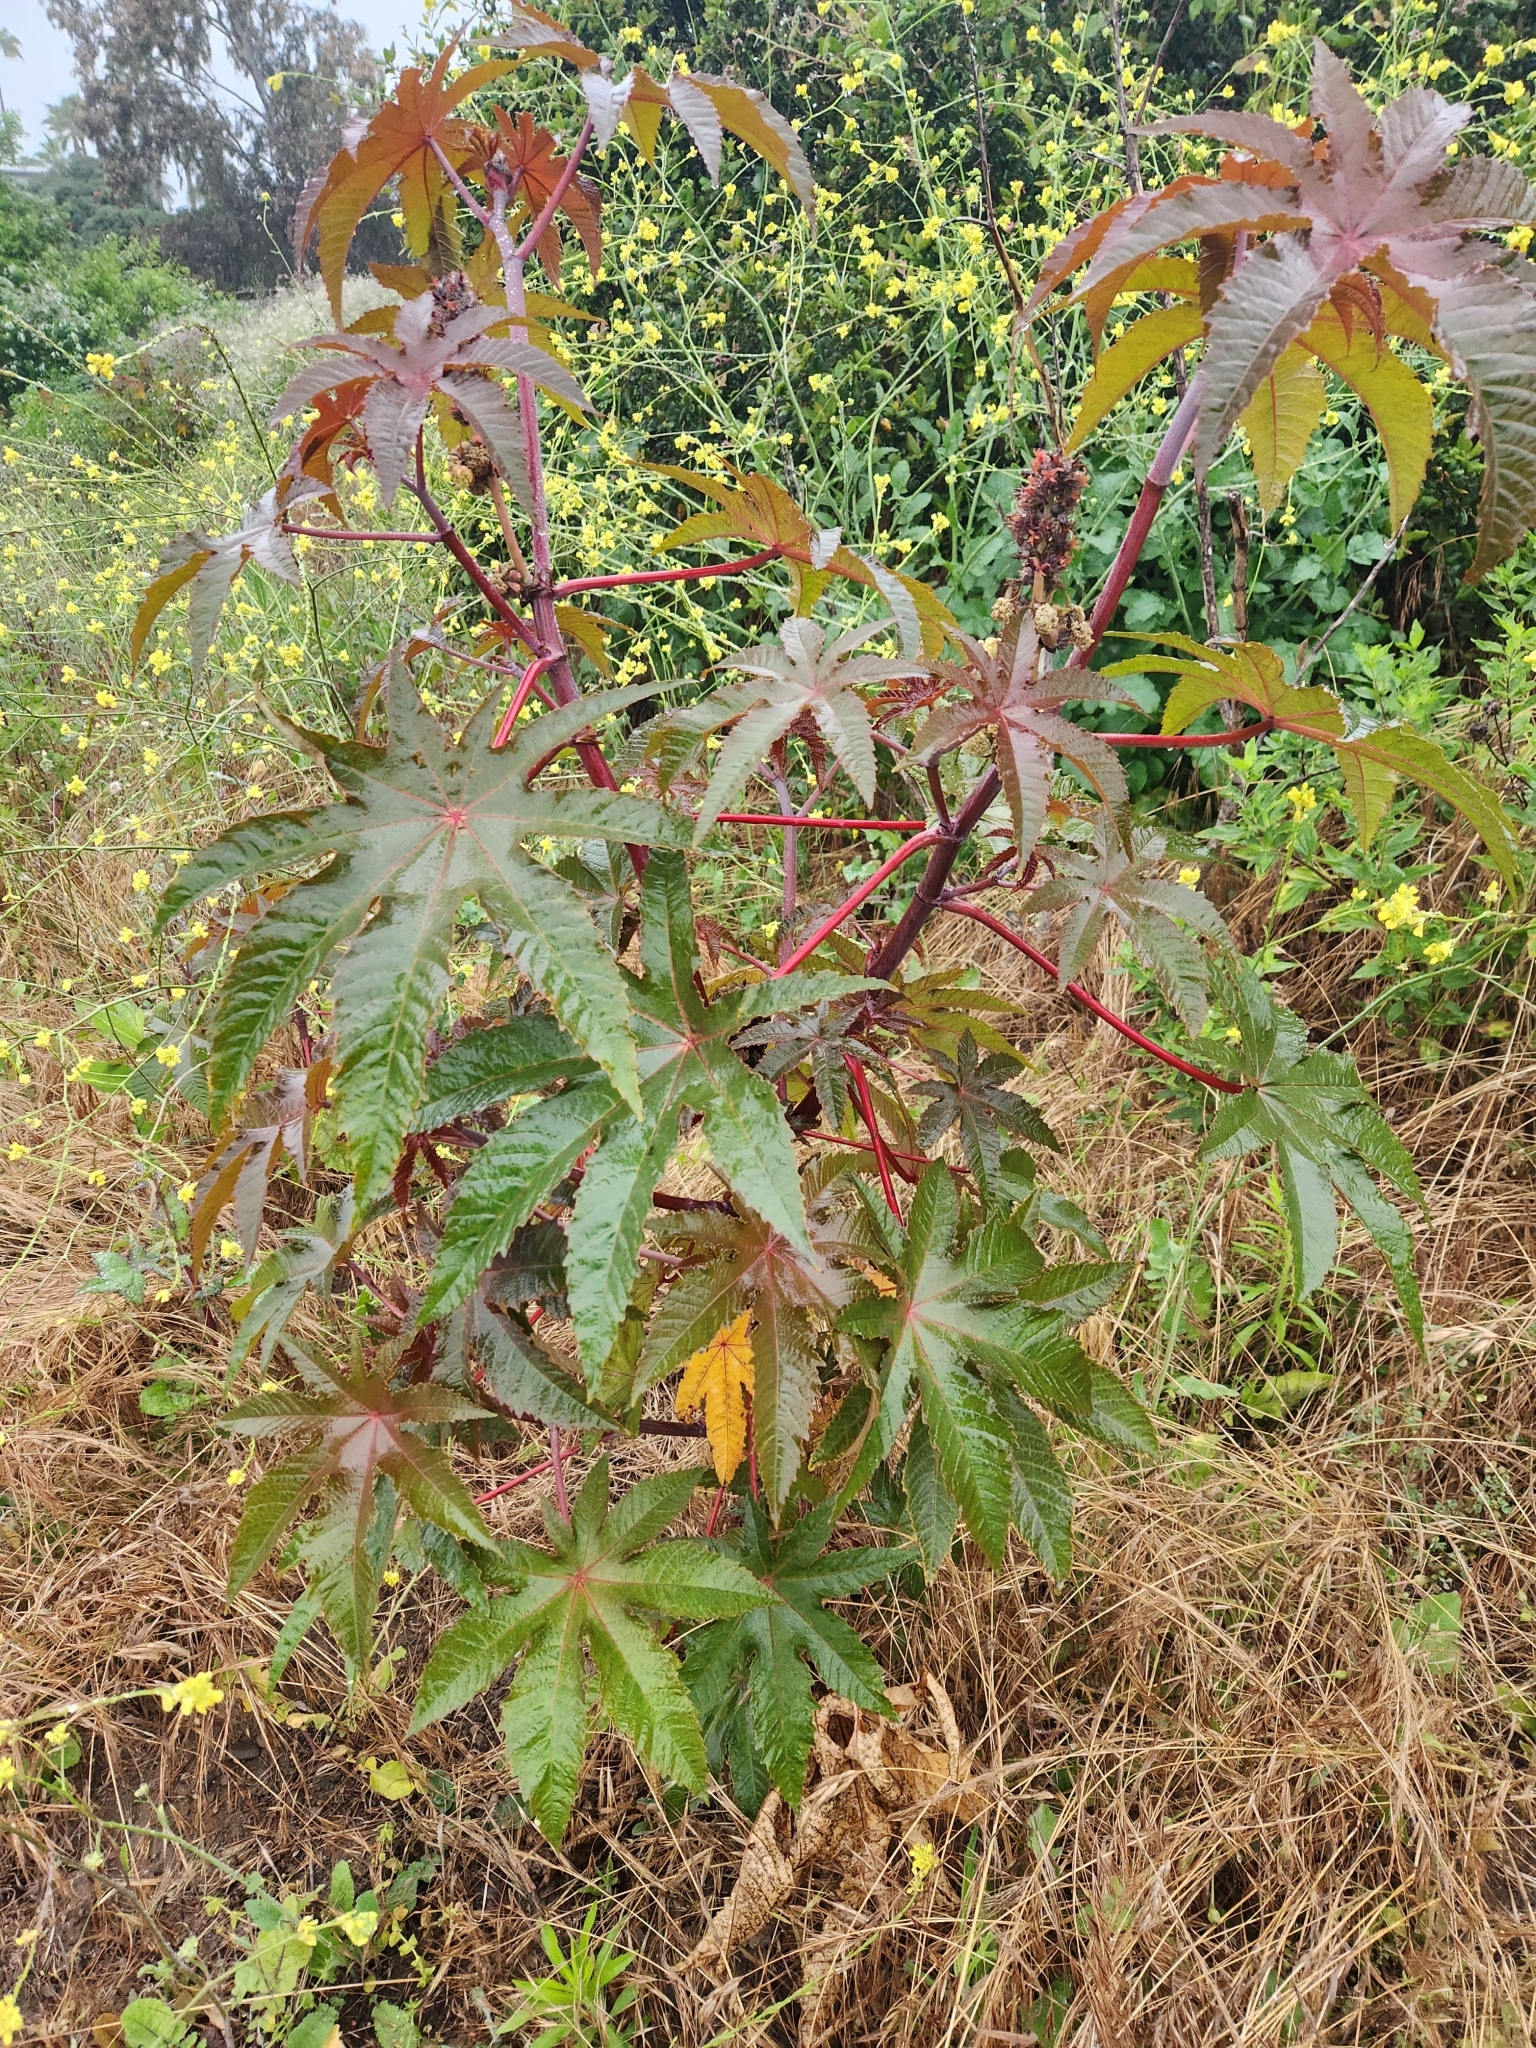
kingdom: Plantae
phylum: Tracheophyta
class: Magnoliopsida
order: Malpighiales
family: Euphorbiaceae
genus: Ricinus
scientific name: Ricinus communis
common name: Castor-oil-plant
